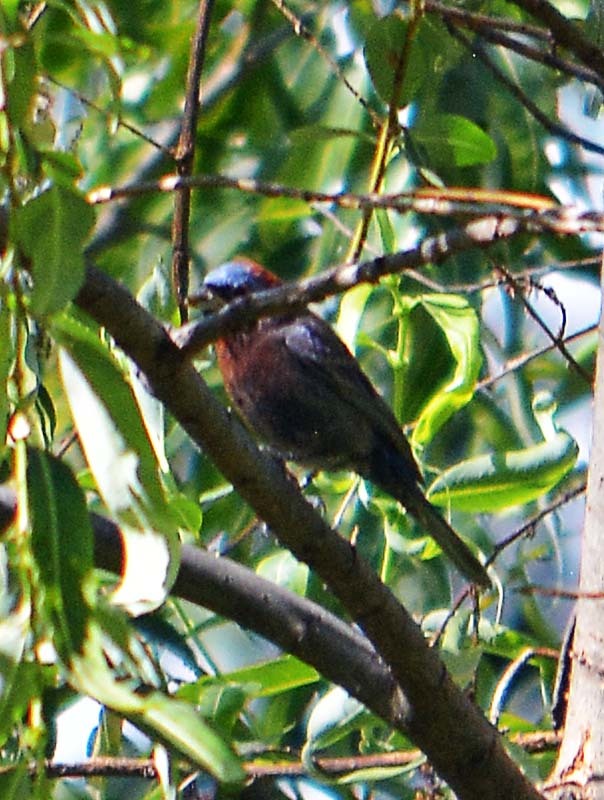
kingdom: Animalia
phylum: Chordata
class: Aves
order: Passeriformes
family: Cardinalidae
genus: Passerina
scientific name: Passerina versicolor
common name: Varied bunting
